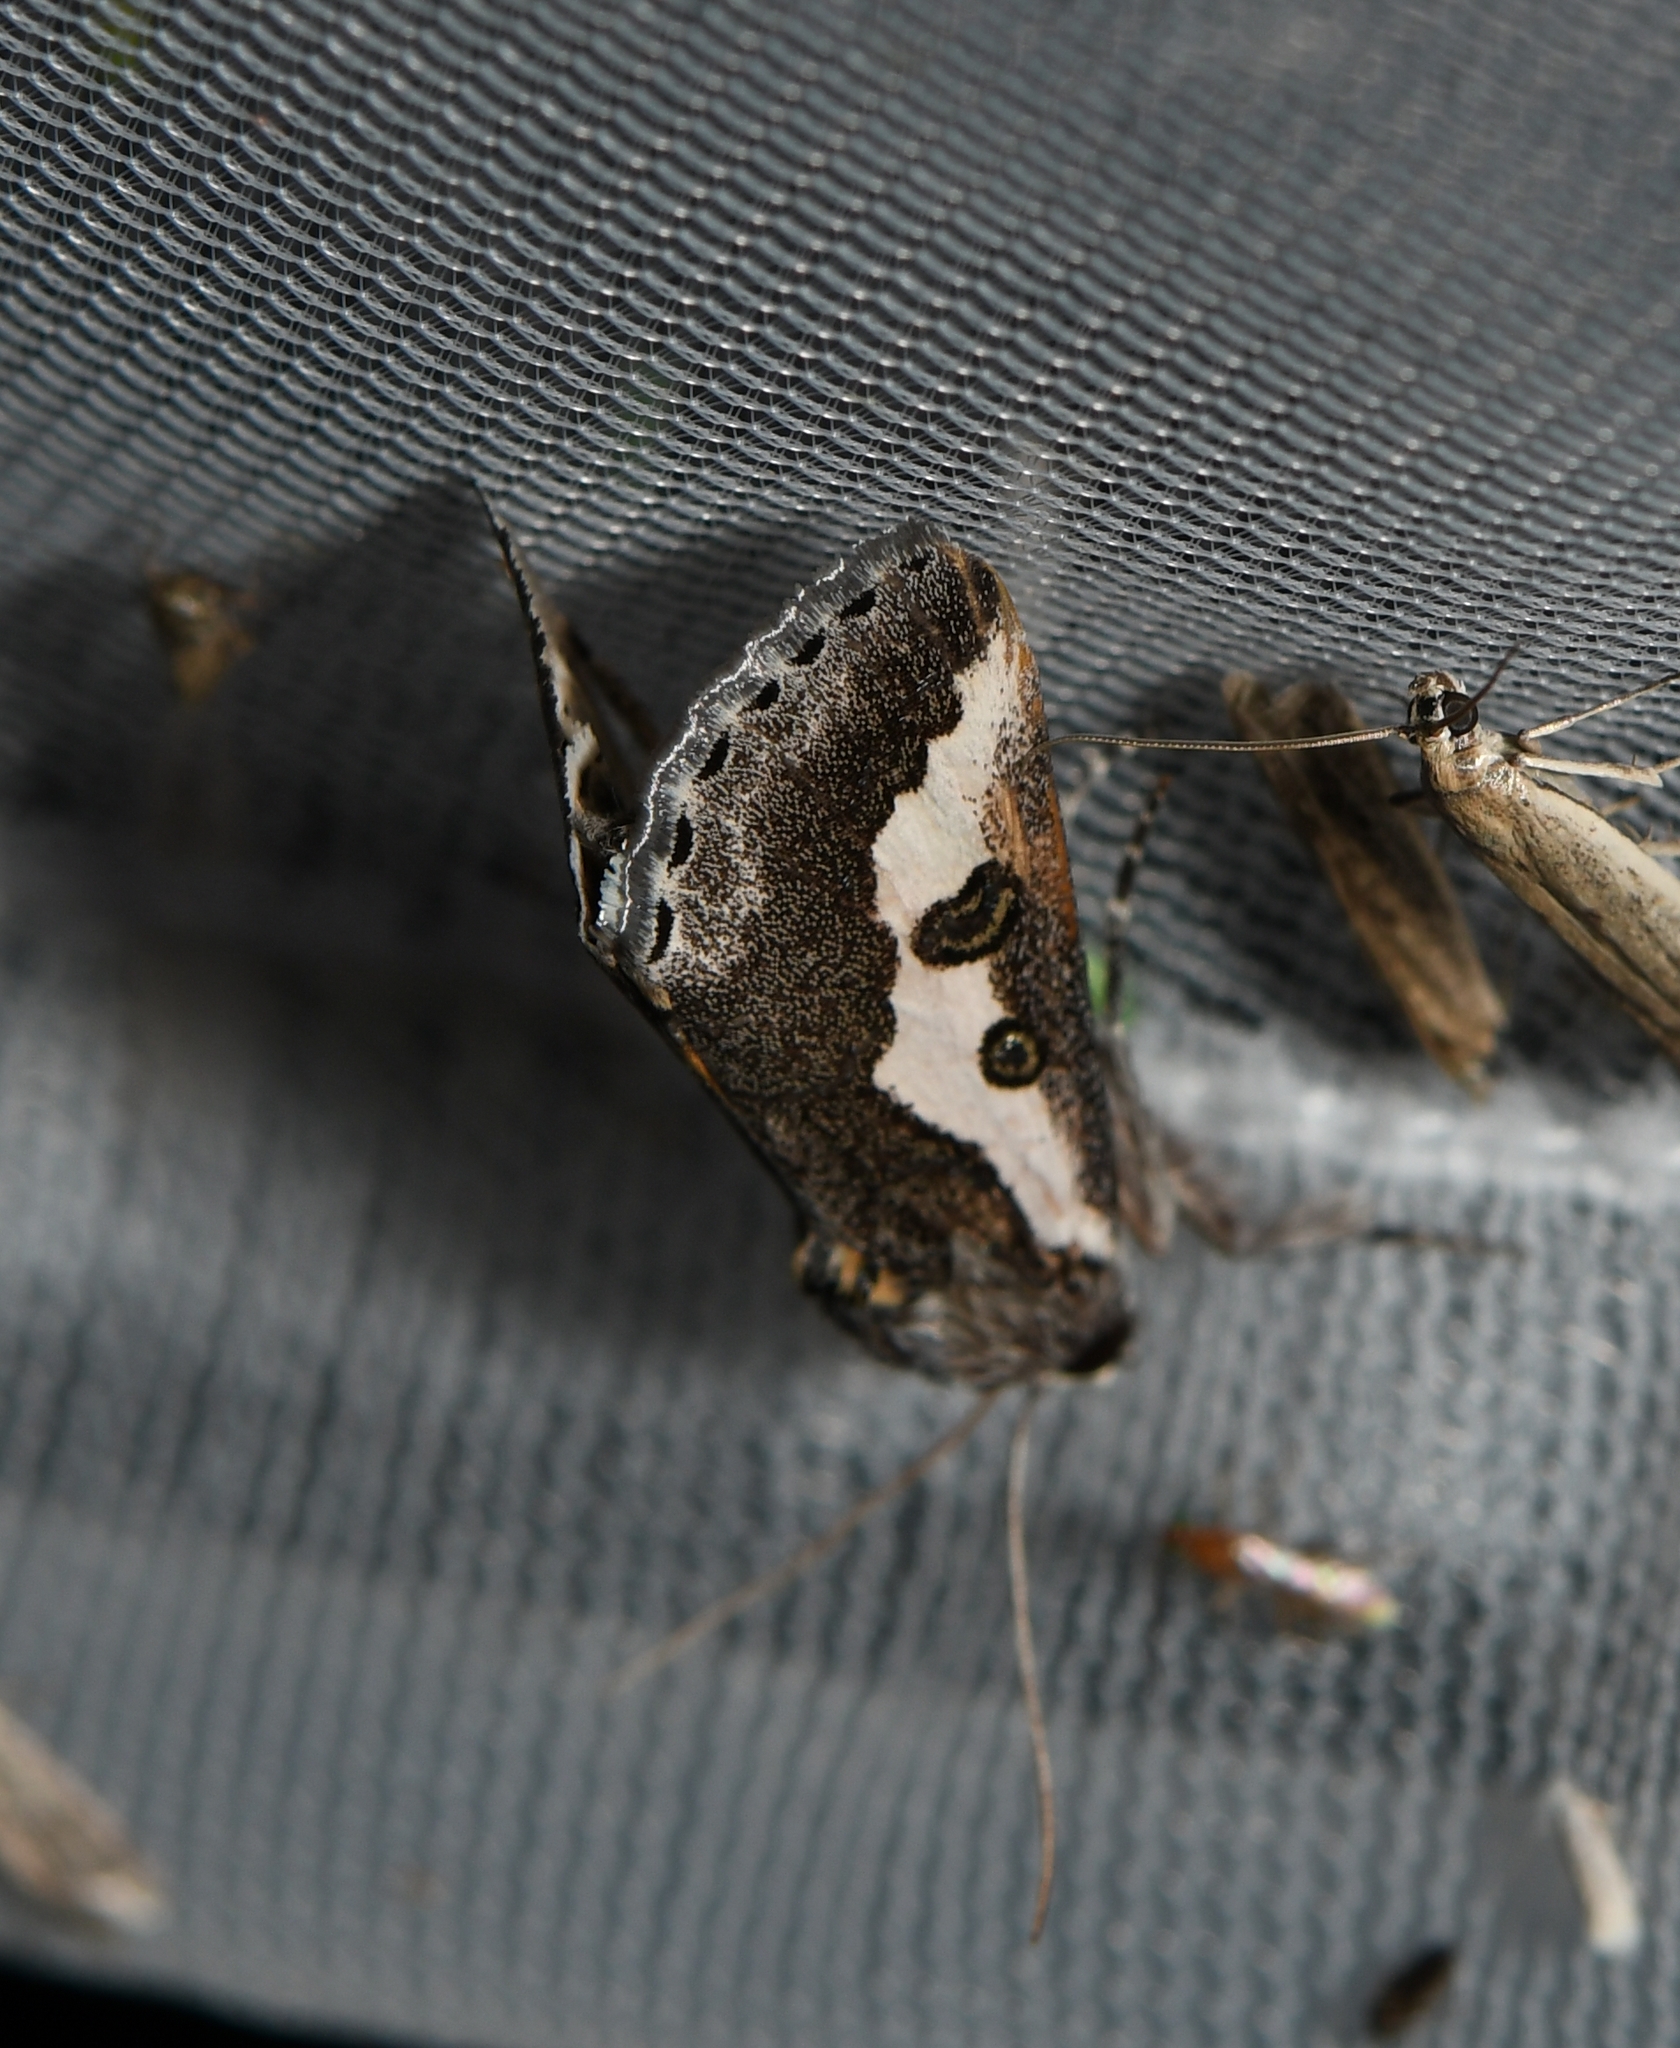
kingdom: Animalia
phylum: Arthropoda
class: Insecta
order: Lepidoptera
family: Noctuidae
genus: Euscirrhopterus
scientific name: Euscirrhopterus gloveri
